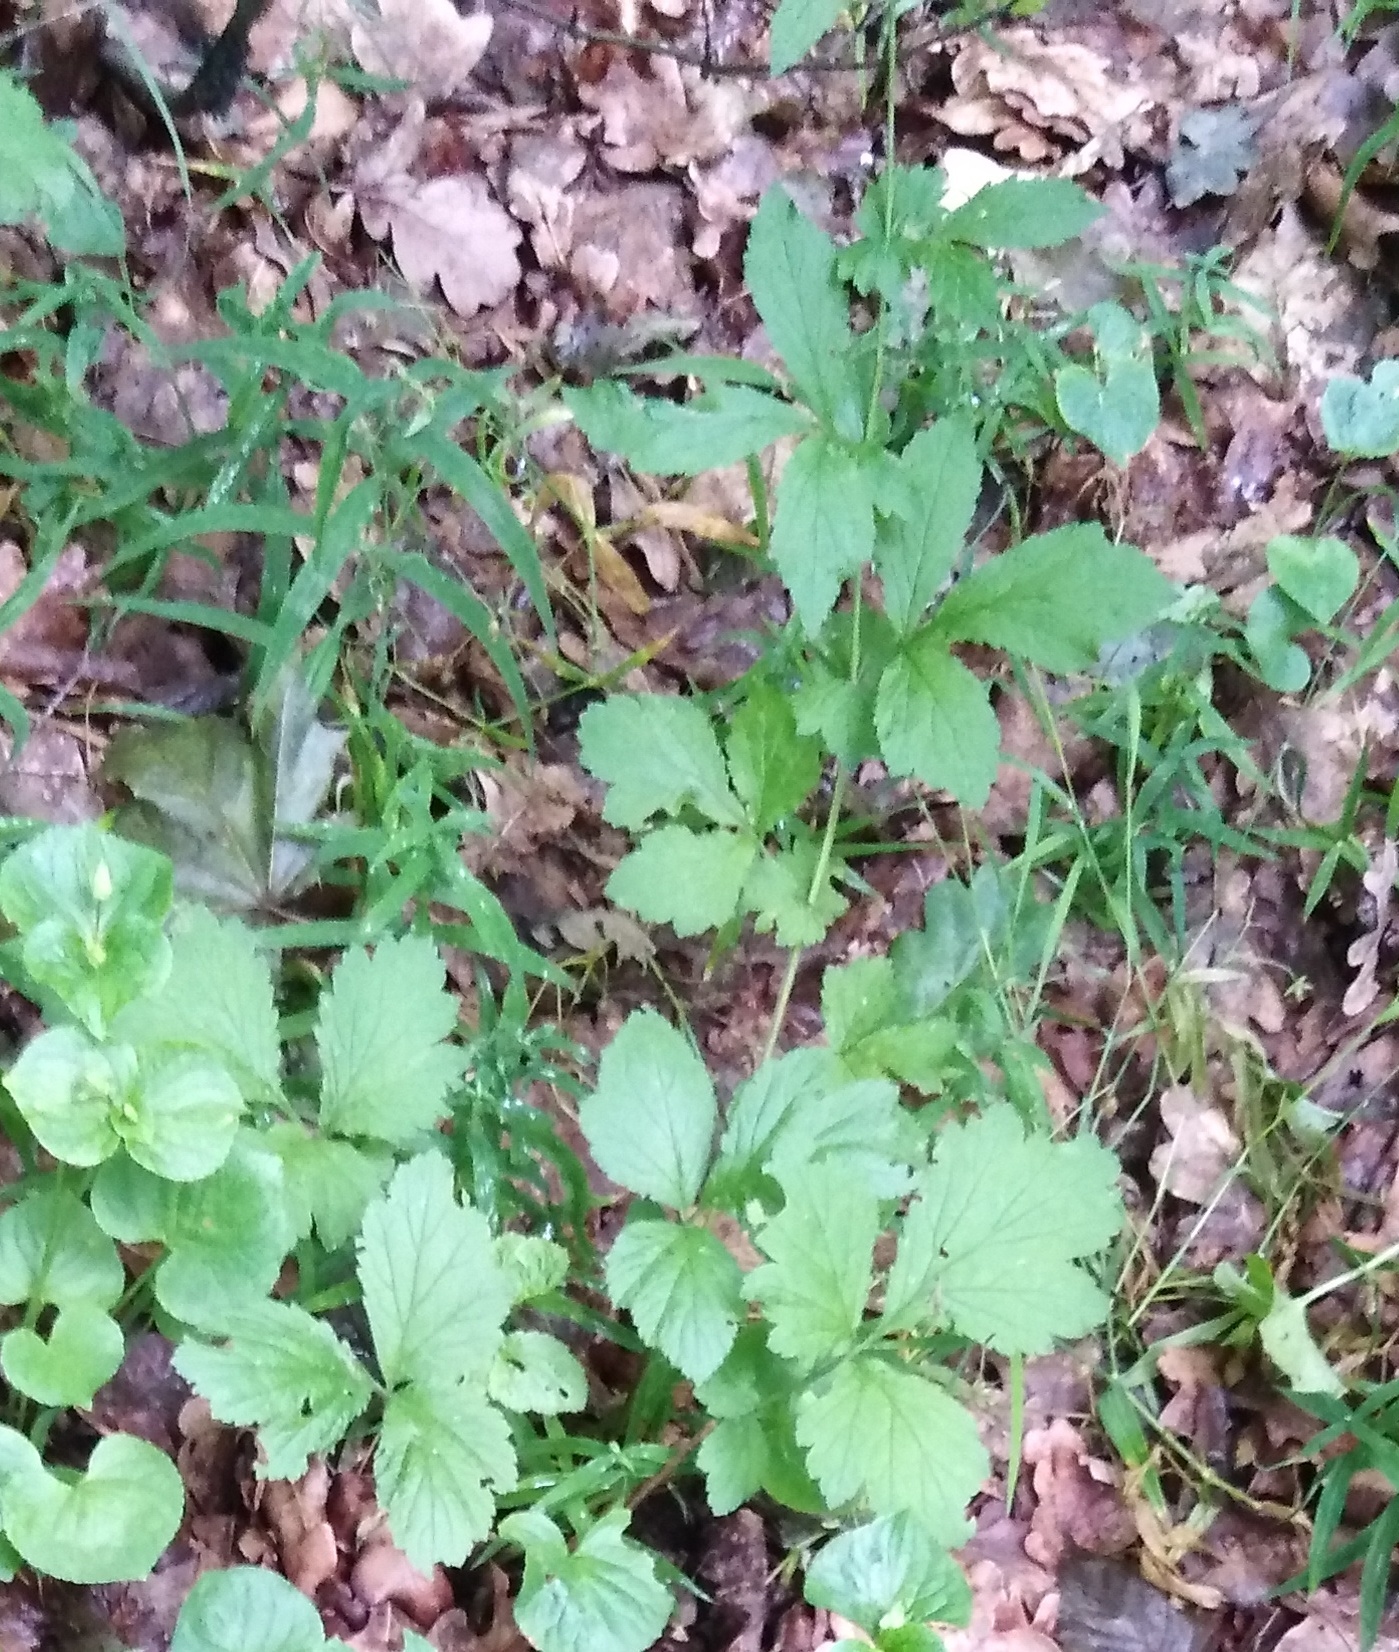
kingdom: Plantae
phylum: Tracheophyta
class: Magnoliopsida
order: Rosales
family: Rosaceae
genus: Geum
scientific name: Geum urbanum
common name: Wood avens
